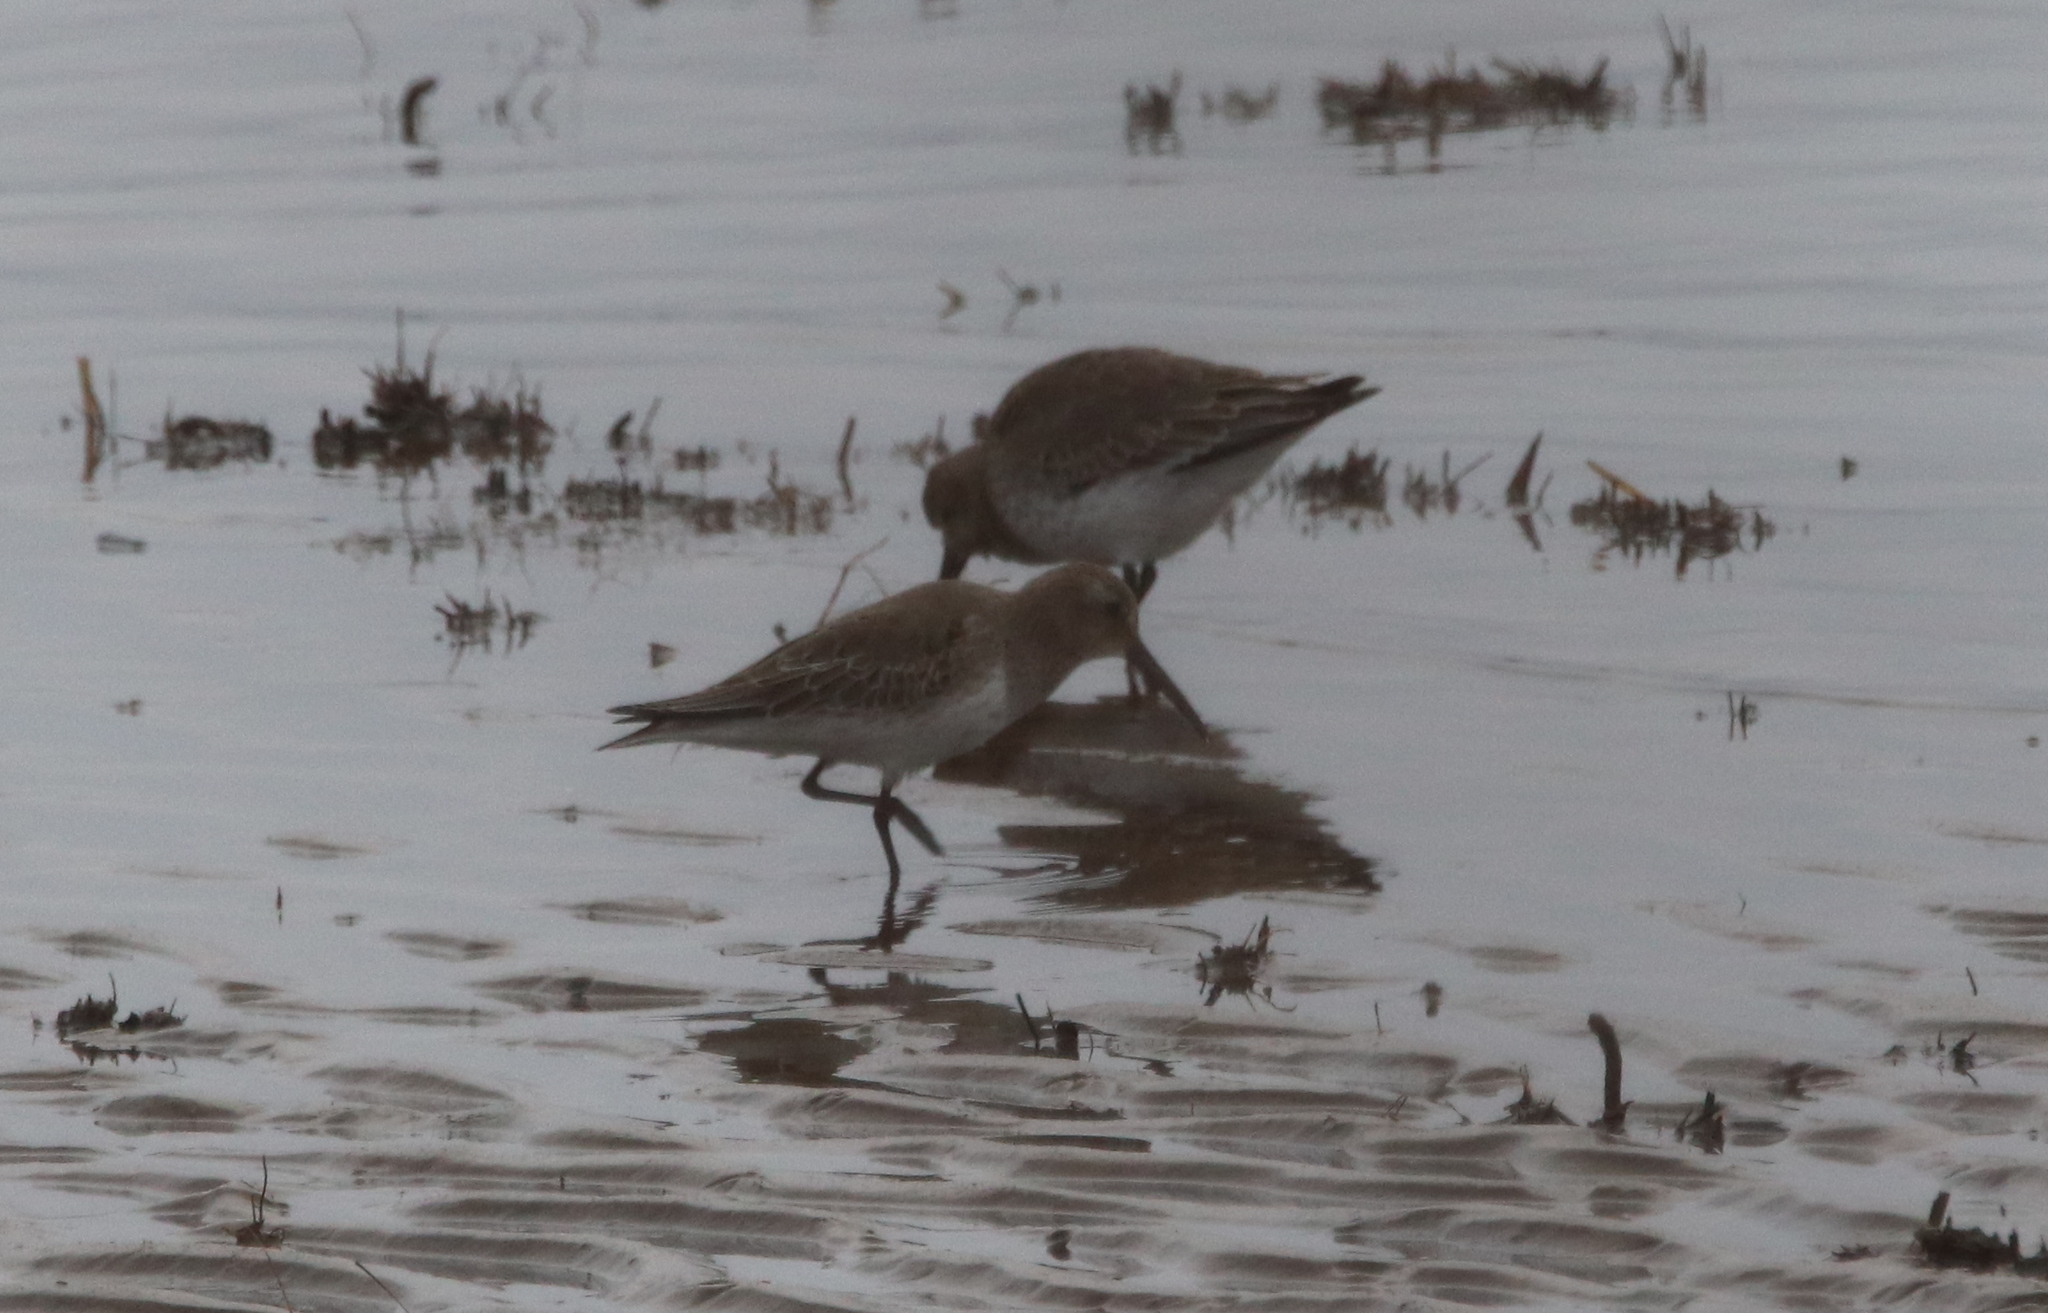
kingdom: Animalia
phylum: Chordata
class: Aves
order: Charadriiformes
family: Scolopacidae
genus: Calidris
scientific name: Calidris alpina
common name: Dunlin
